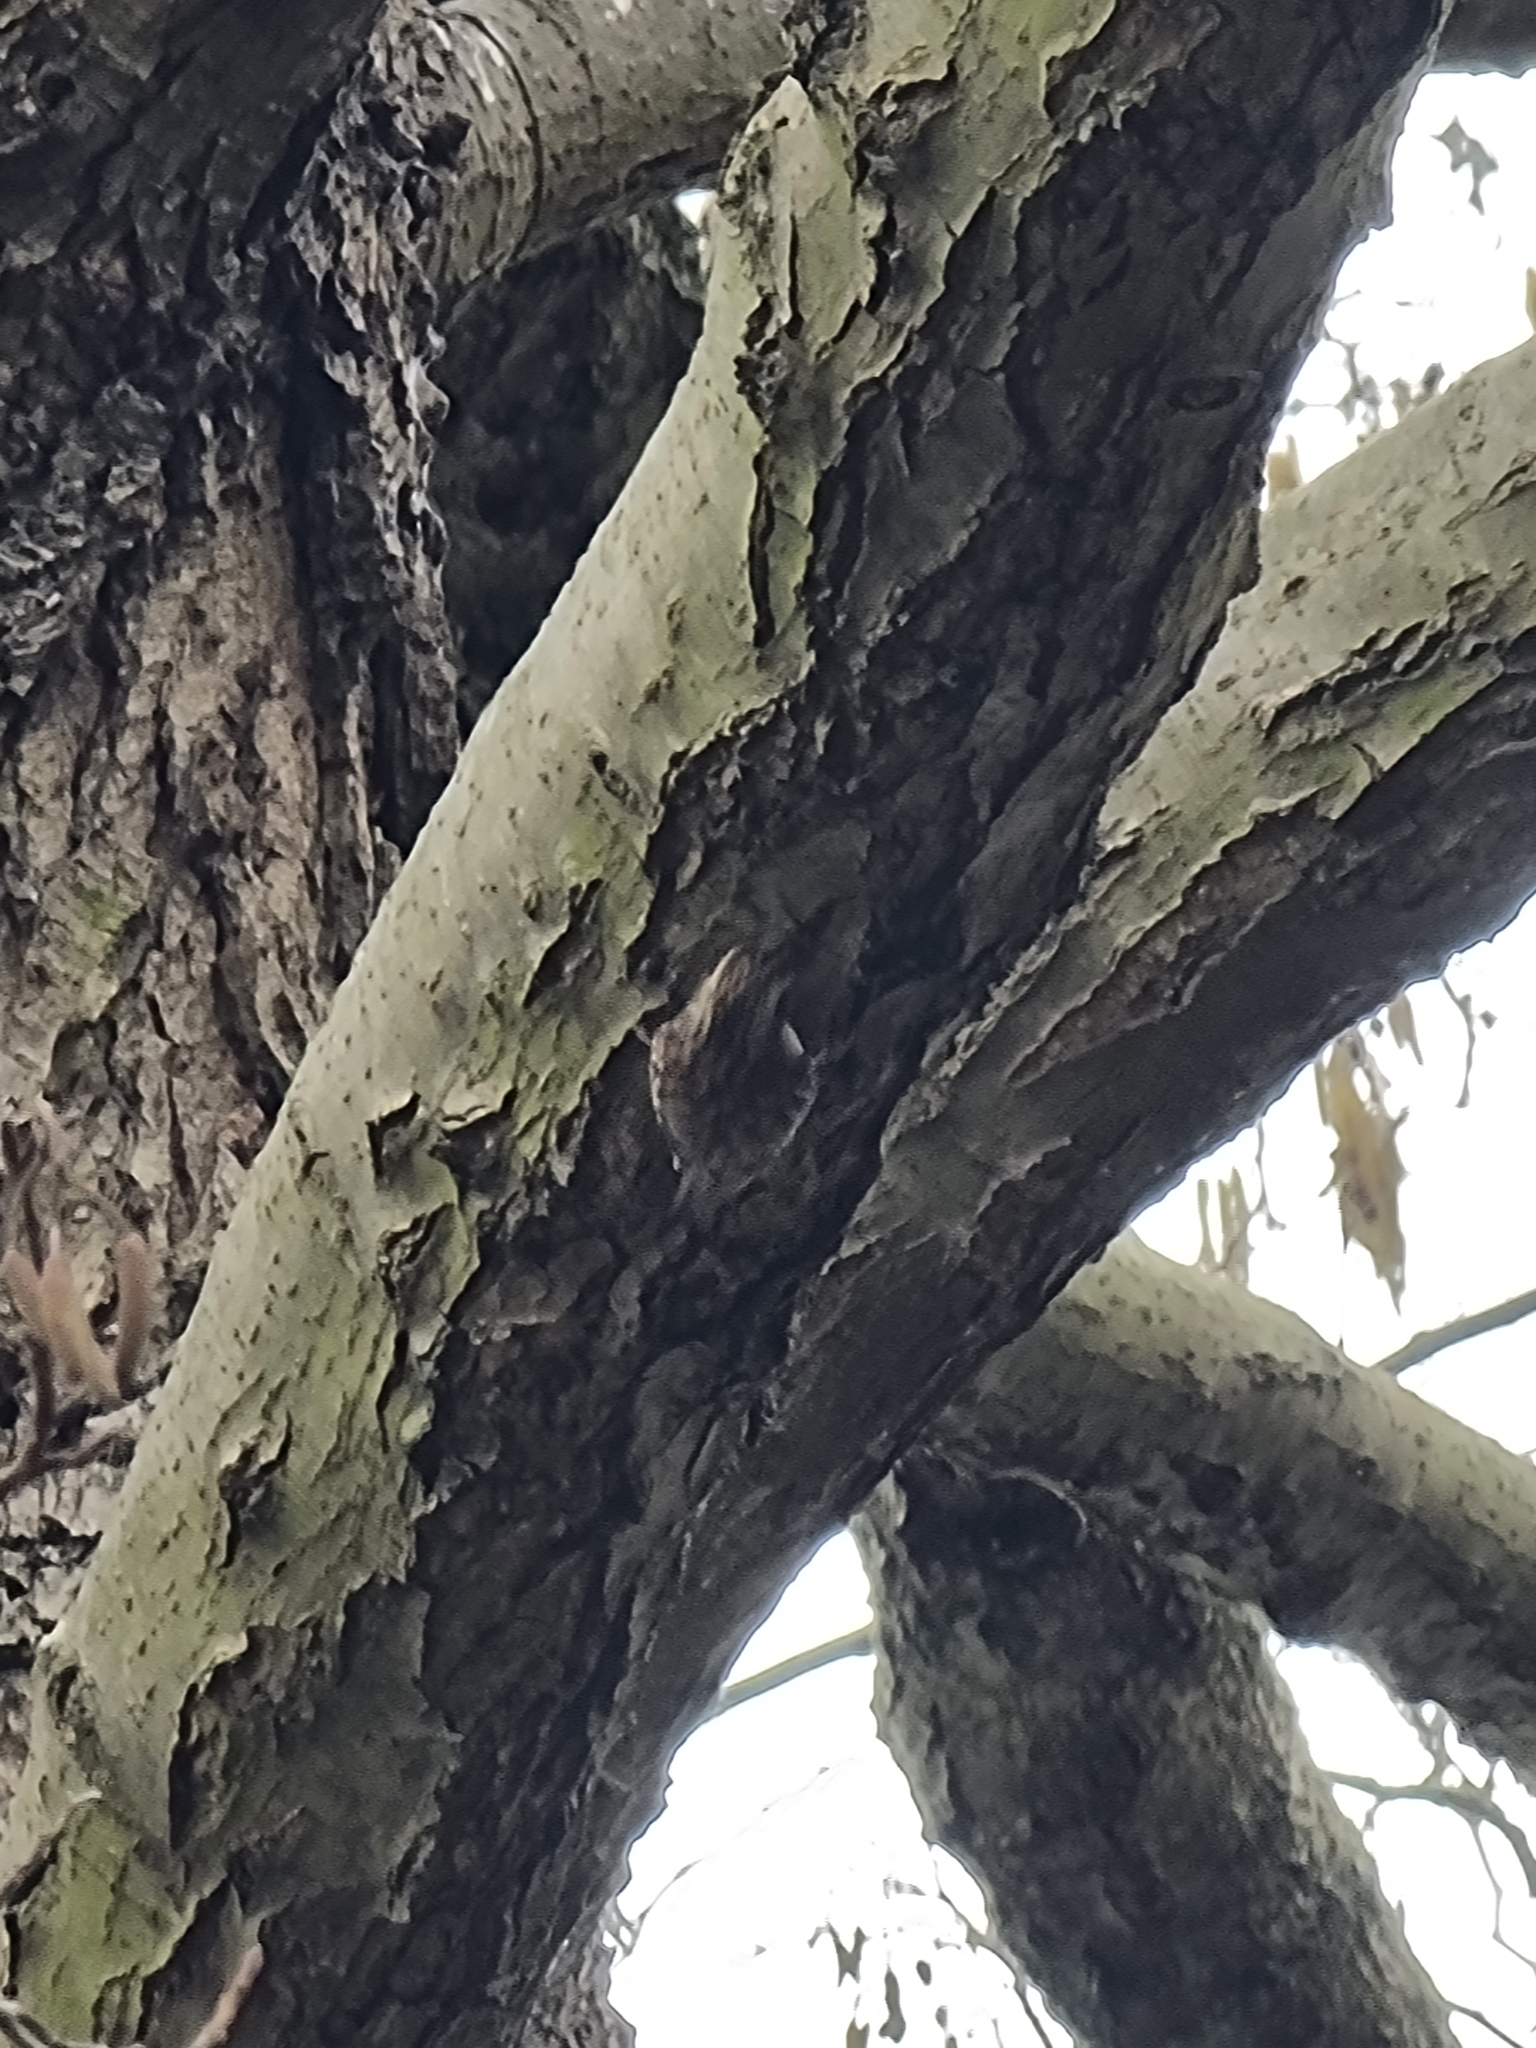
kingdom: Animalia
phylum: Chordata
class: Aves
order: Passeriformes
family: Certhiidae
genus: Certhia
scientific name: Certhia familiaris
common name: Eurasian treecreeper
